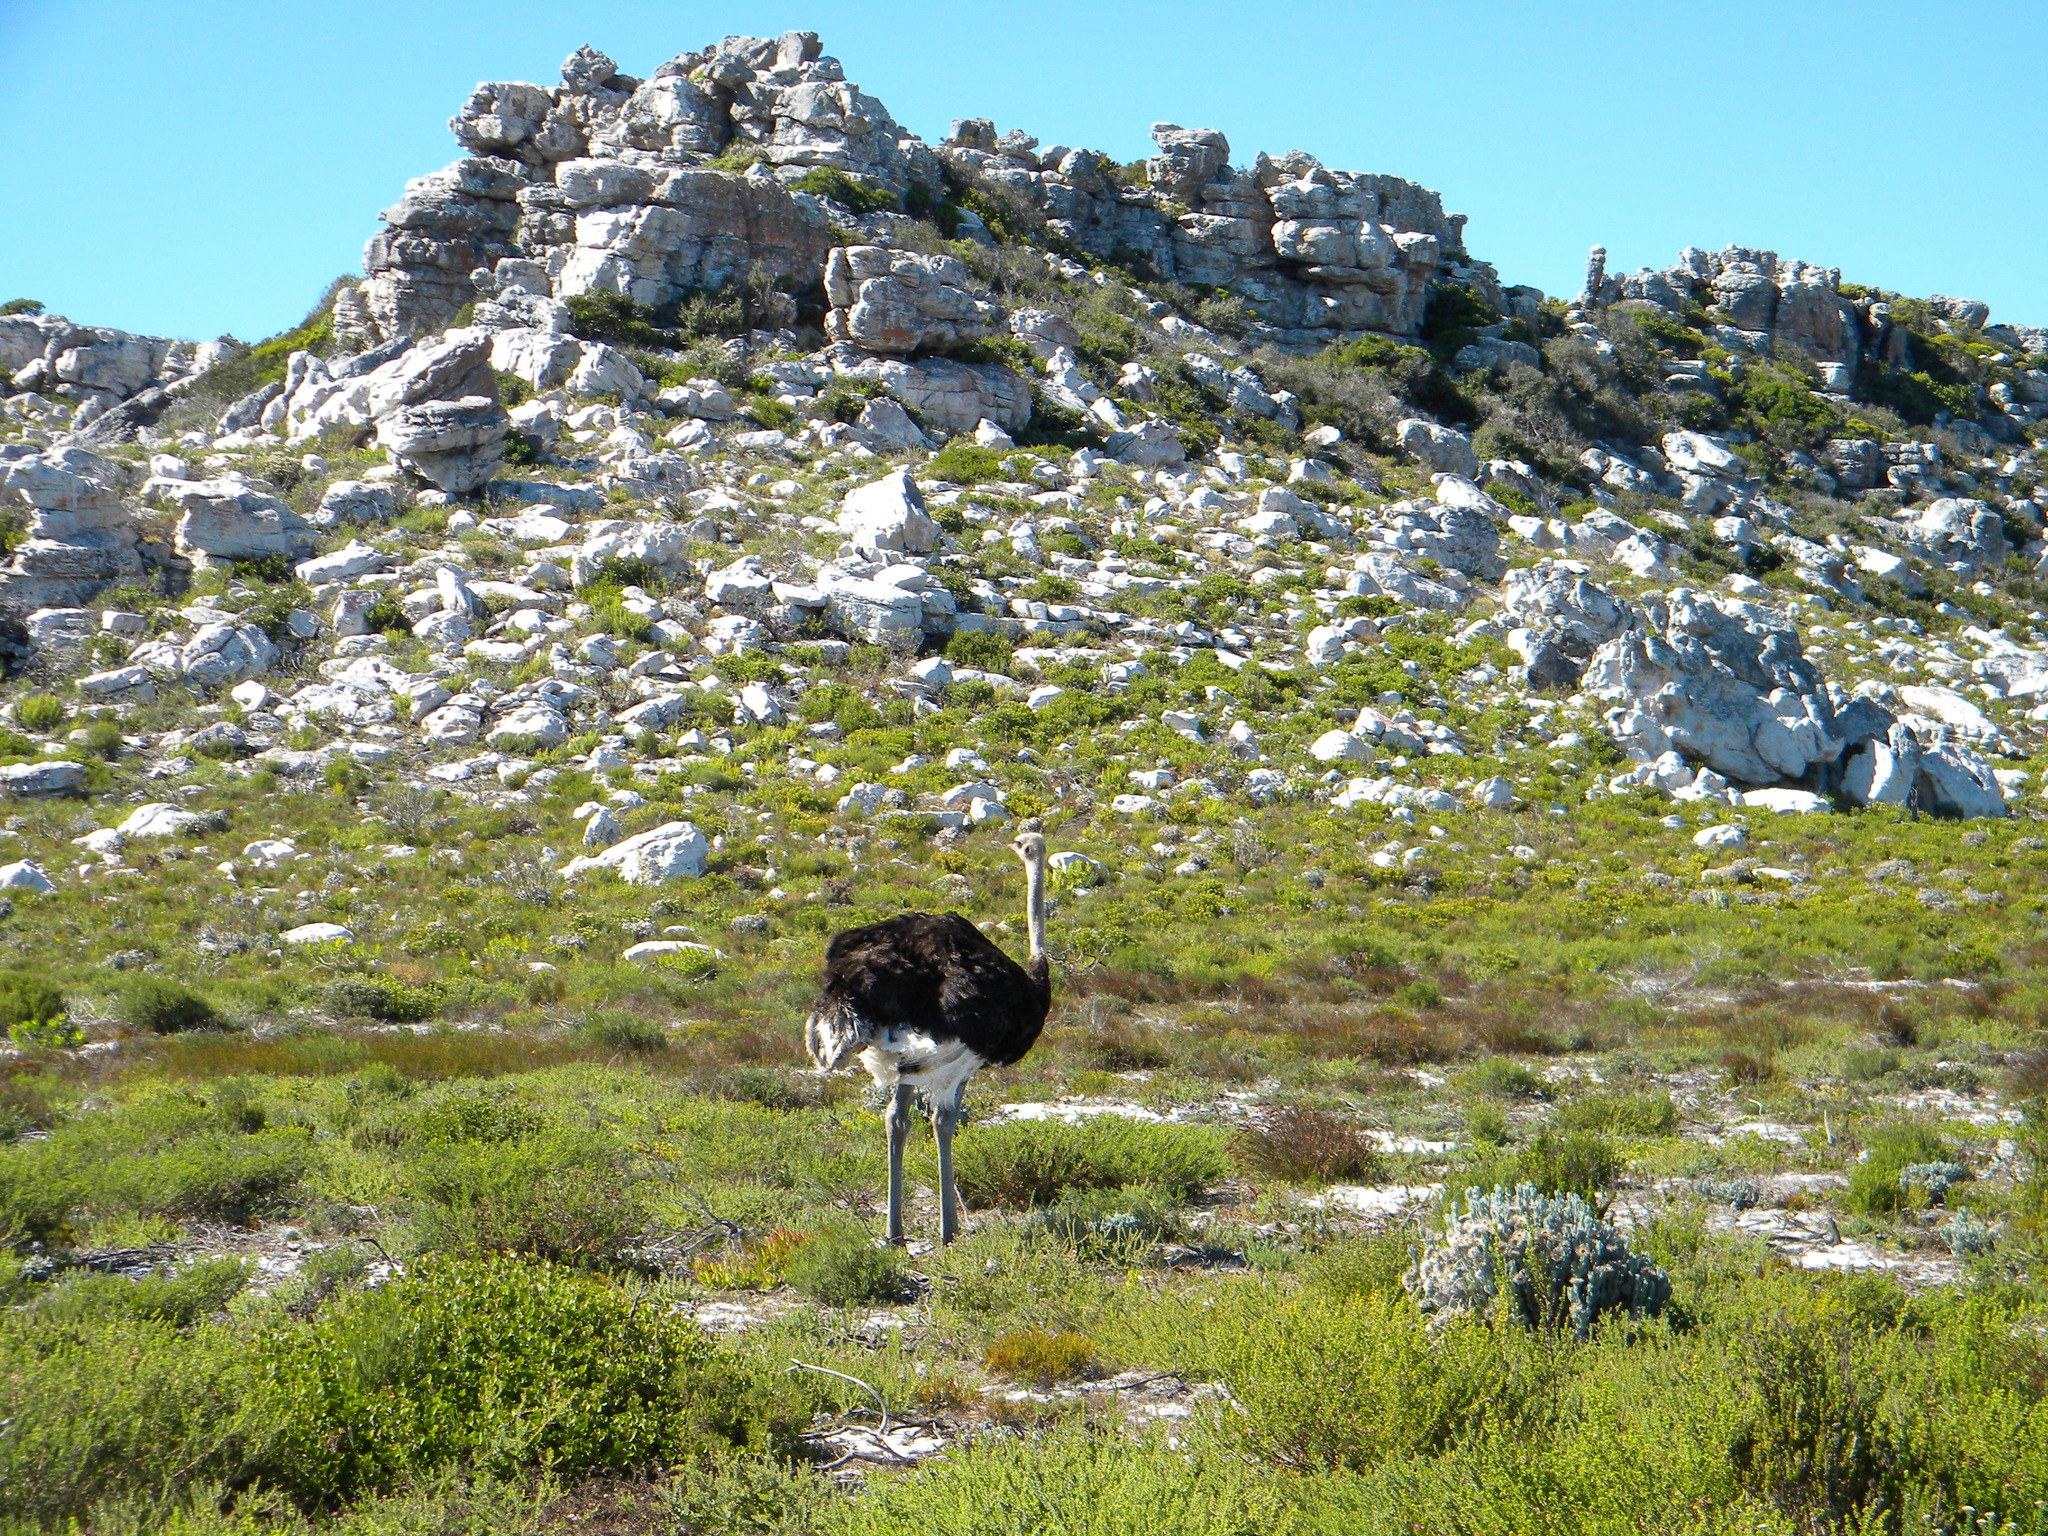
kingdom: Animalia
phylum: Chordata
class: Aves
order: Struthioniformes
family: Struthionidae
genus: Struthio
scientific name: Struthio camelus
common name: Common ostrich
